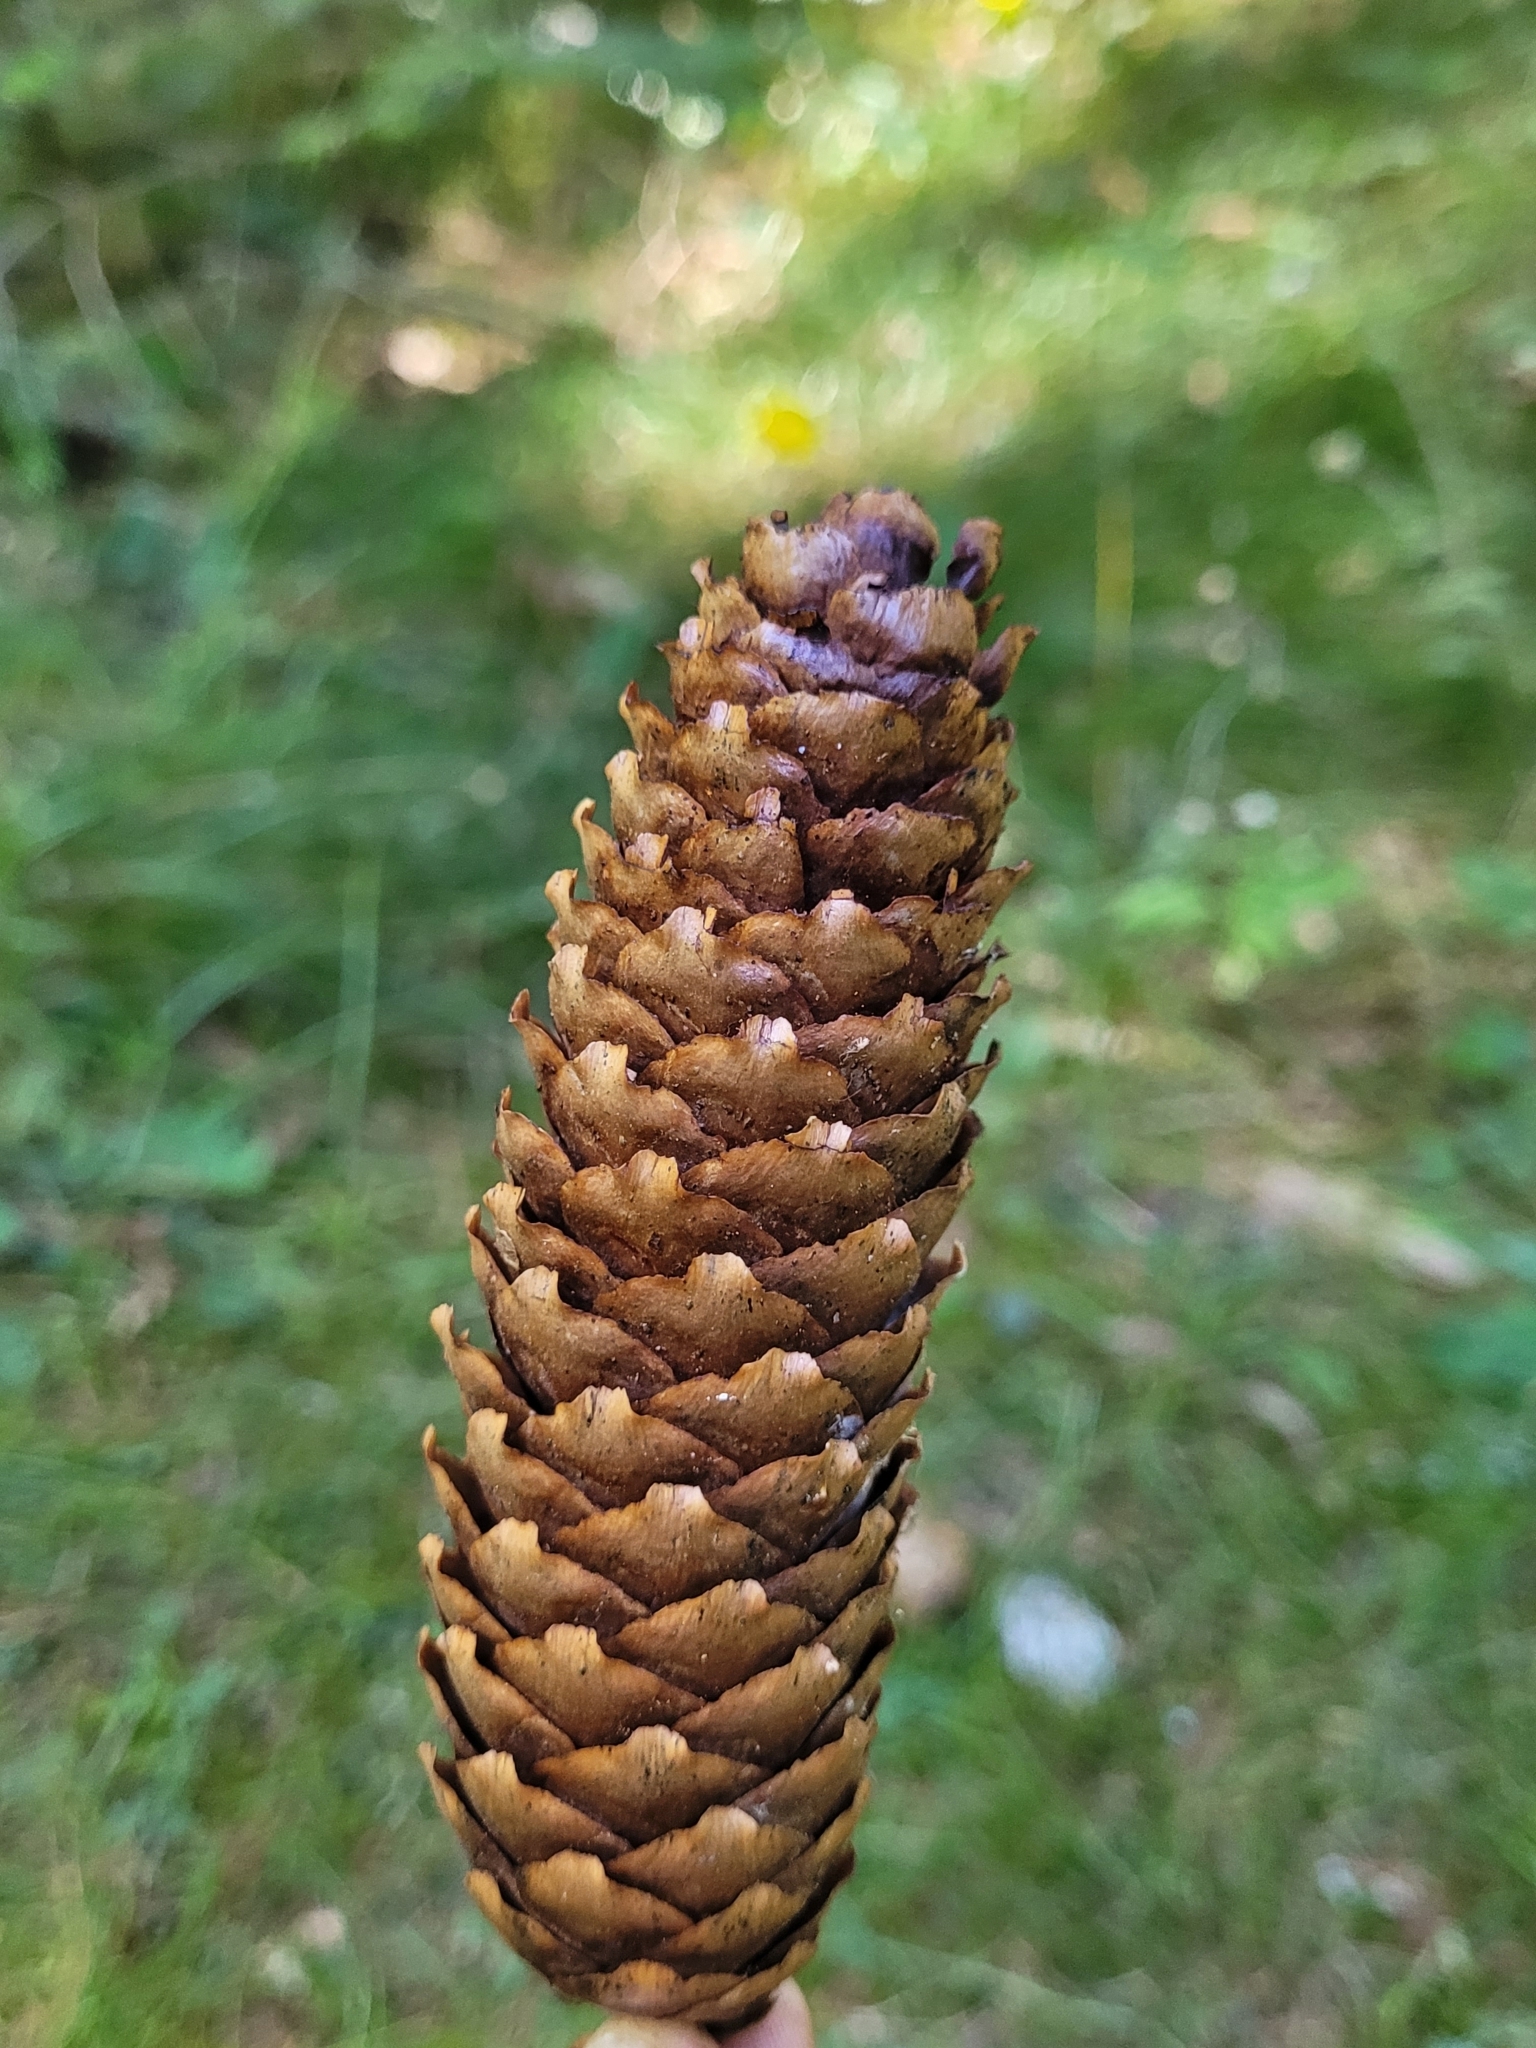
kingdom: Plantae
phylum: Tracheophyta
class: Pinopsida
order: Pinales
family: Pinaceae
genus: Picea
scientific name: Picea abies
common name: Norway spruce
